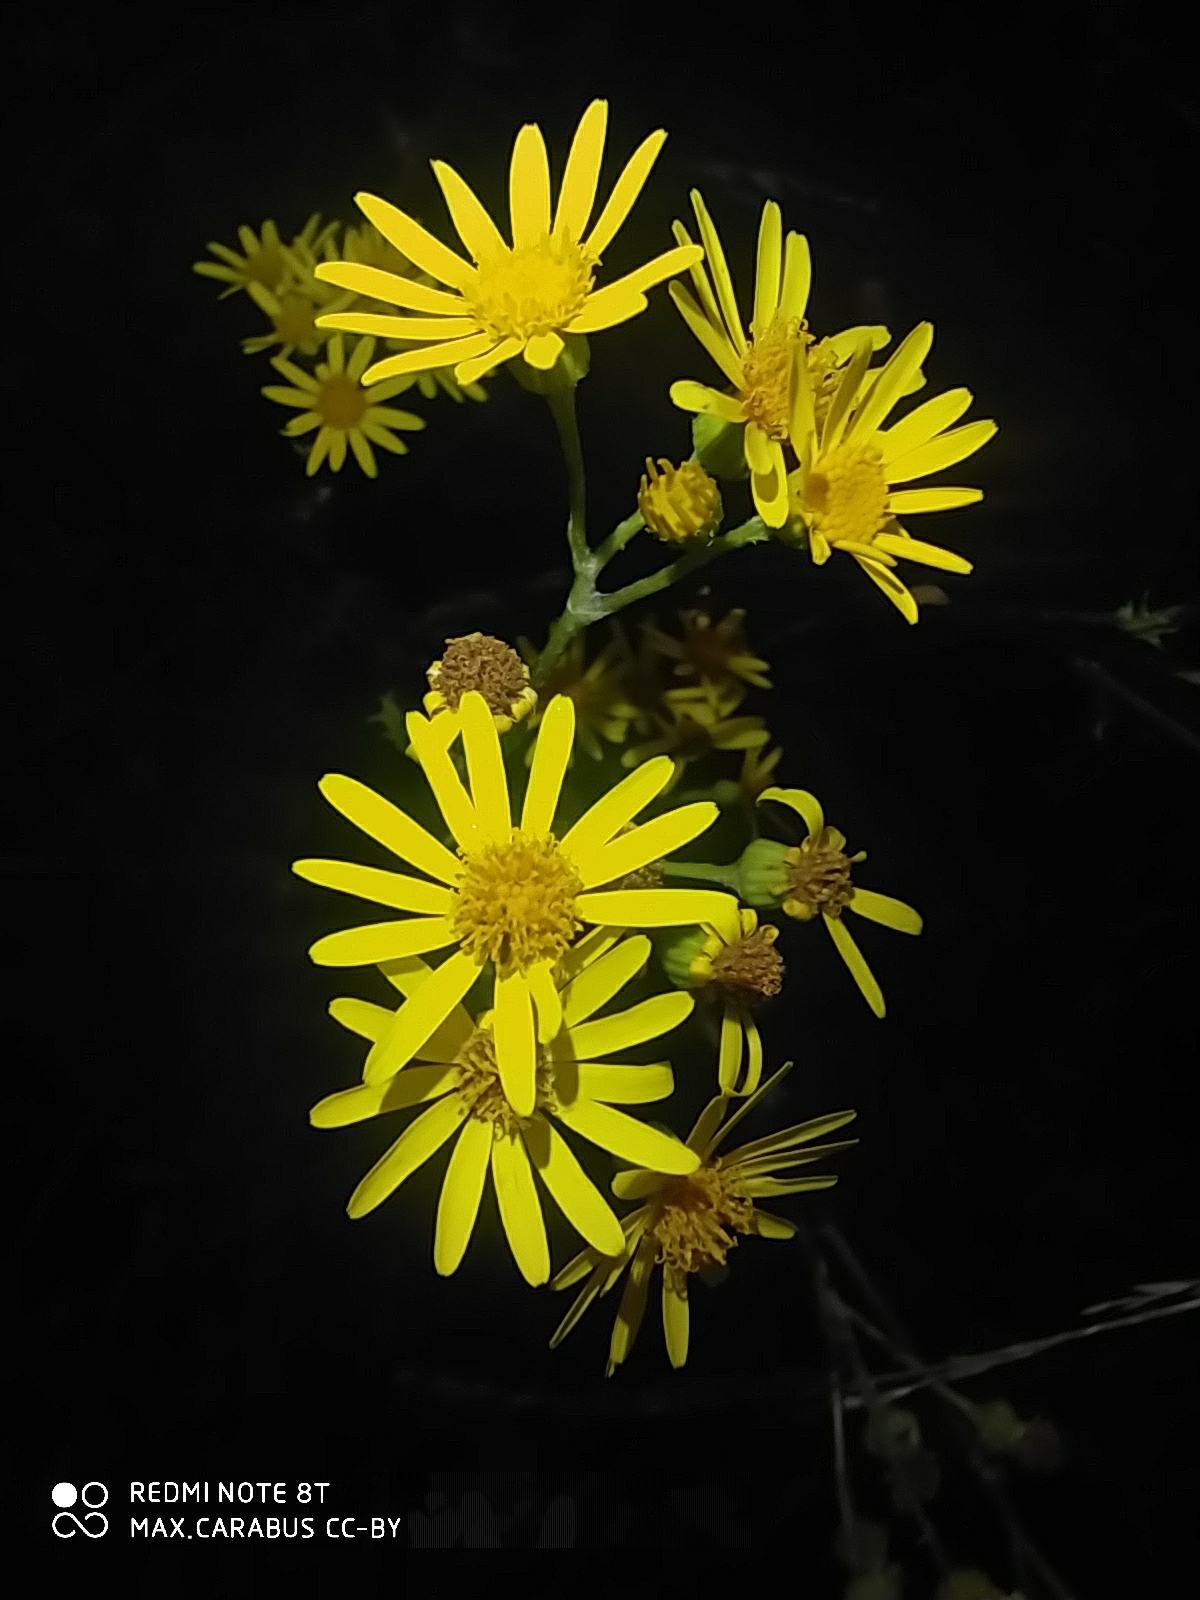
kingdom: Plantae
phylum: Tracheophyta
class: Magnoliopsida
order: Asterales
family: Asteraceae
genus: Jacobaea
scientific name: Jacobaea vulgaris
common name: Stinking willie
